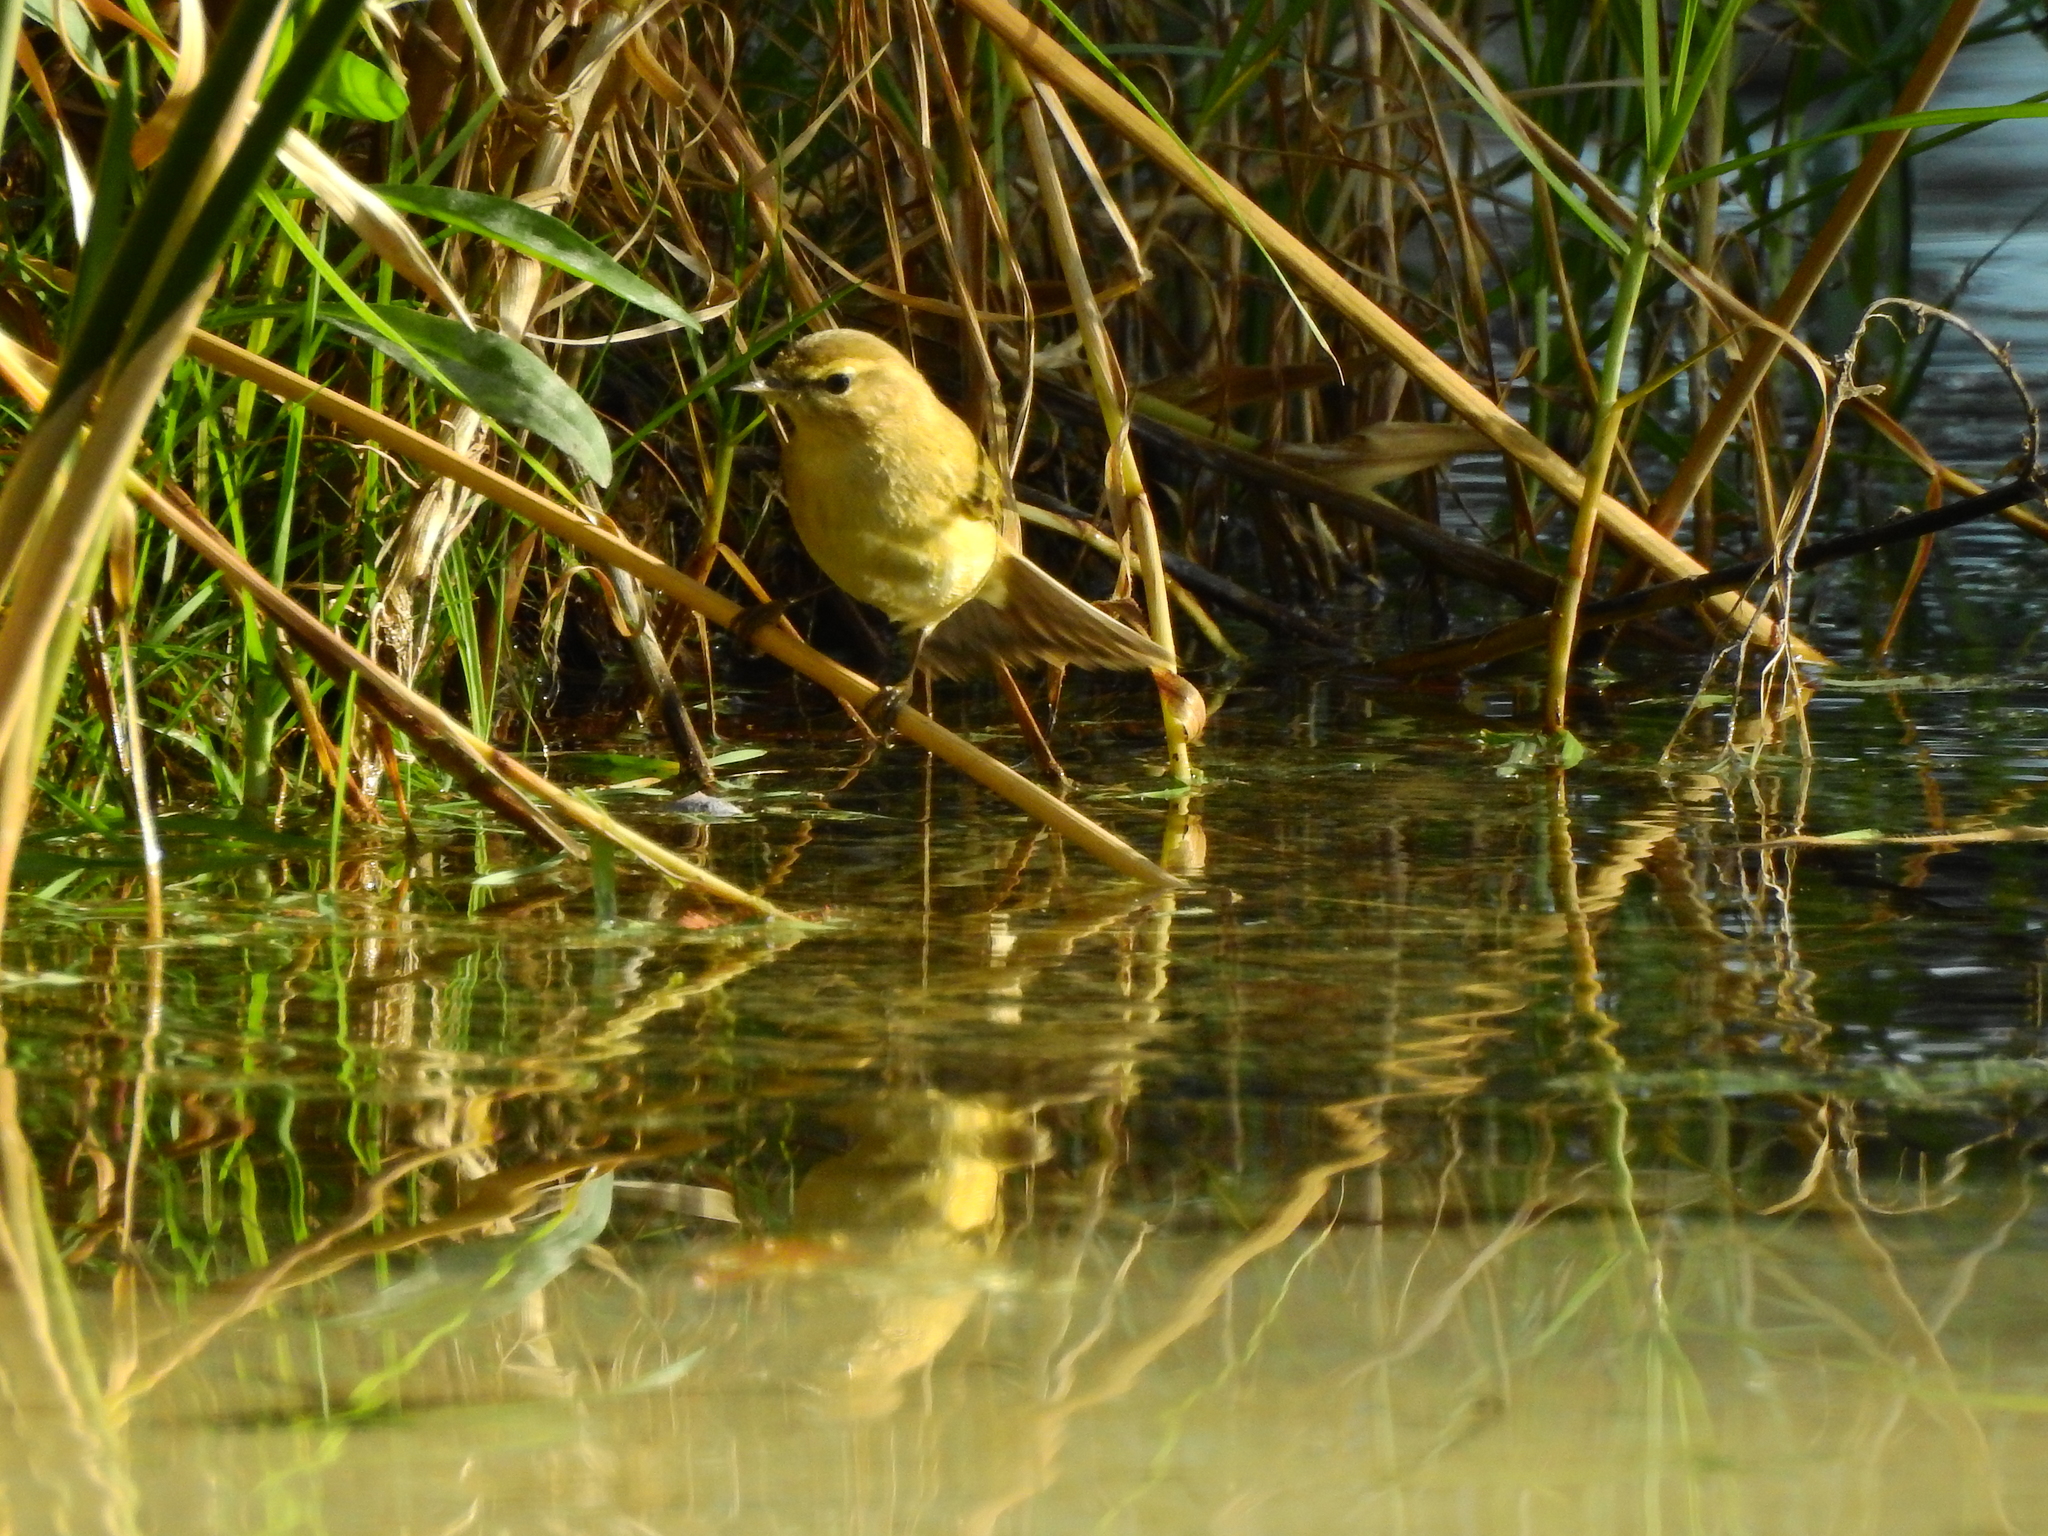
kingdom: Animalia
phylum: Chordata
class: Aves
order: Passeriformes
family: Phylloscopidae
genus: Phylloscopus
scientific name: Phylloscopus collybita
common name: Common chiffchaff
